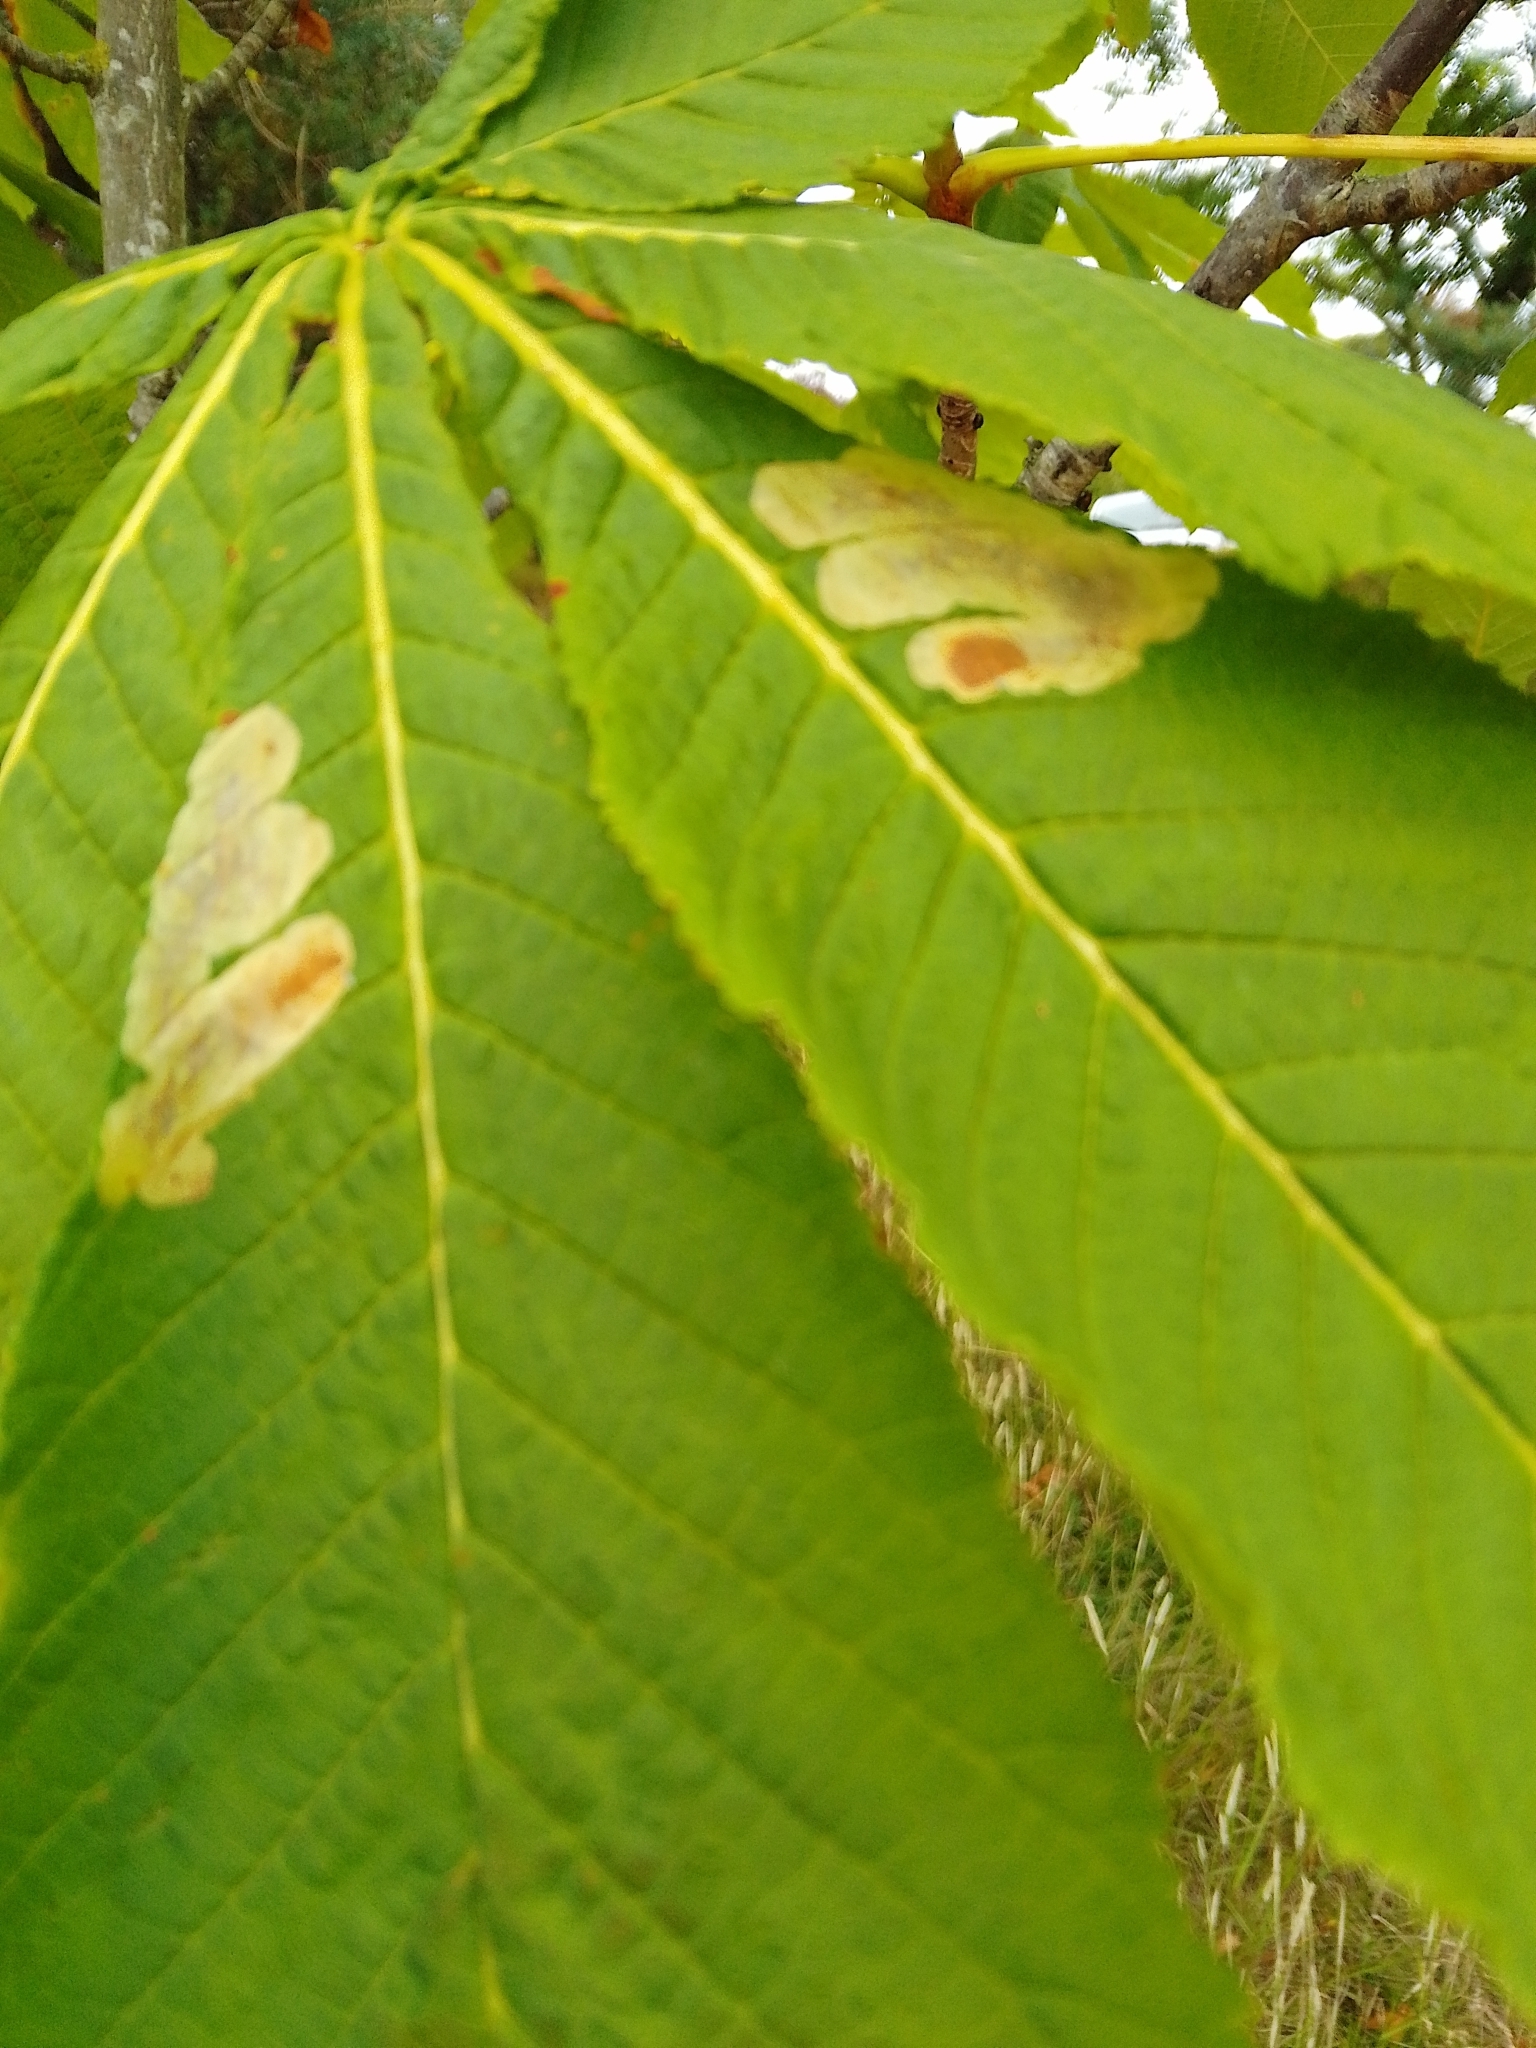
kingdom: Animalia
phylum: Arthropoda
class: Insecta
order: Lepidoptera
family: Gracillariidae
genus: Cameraria
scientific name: Cameraria ohridella
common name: Horse-chestnut leaf-miner
